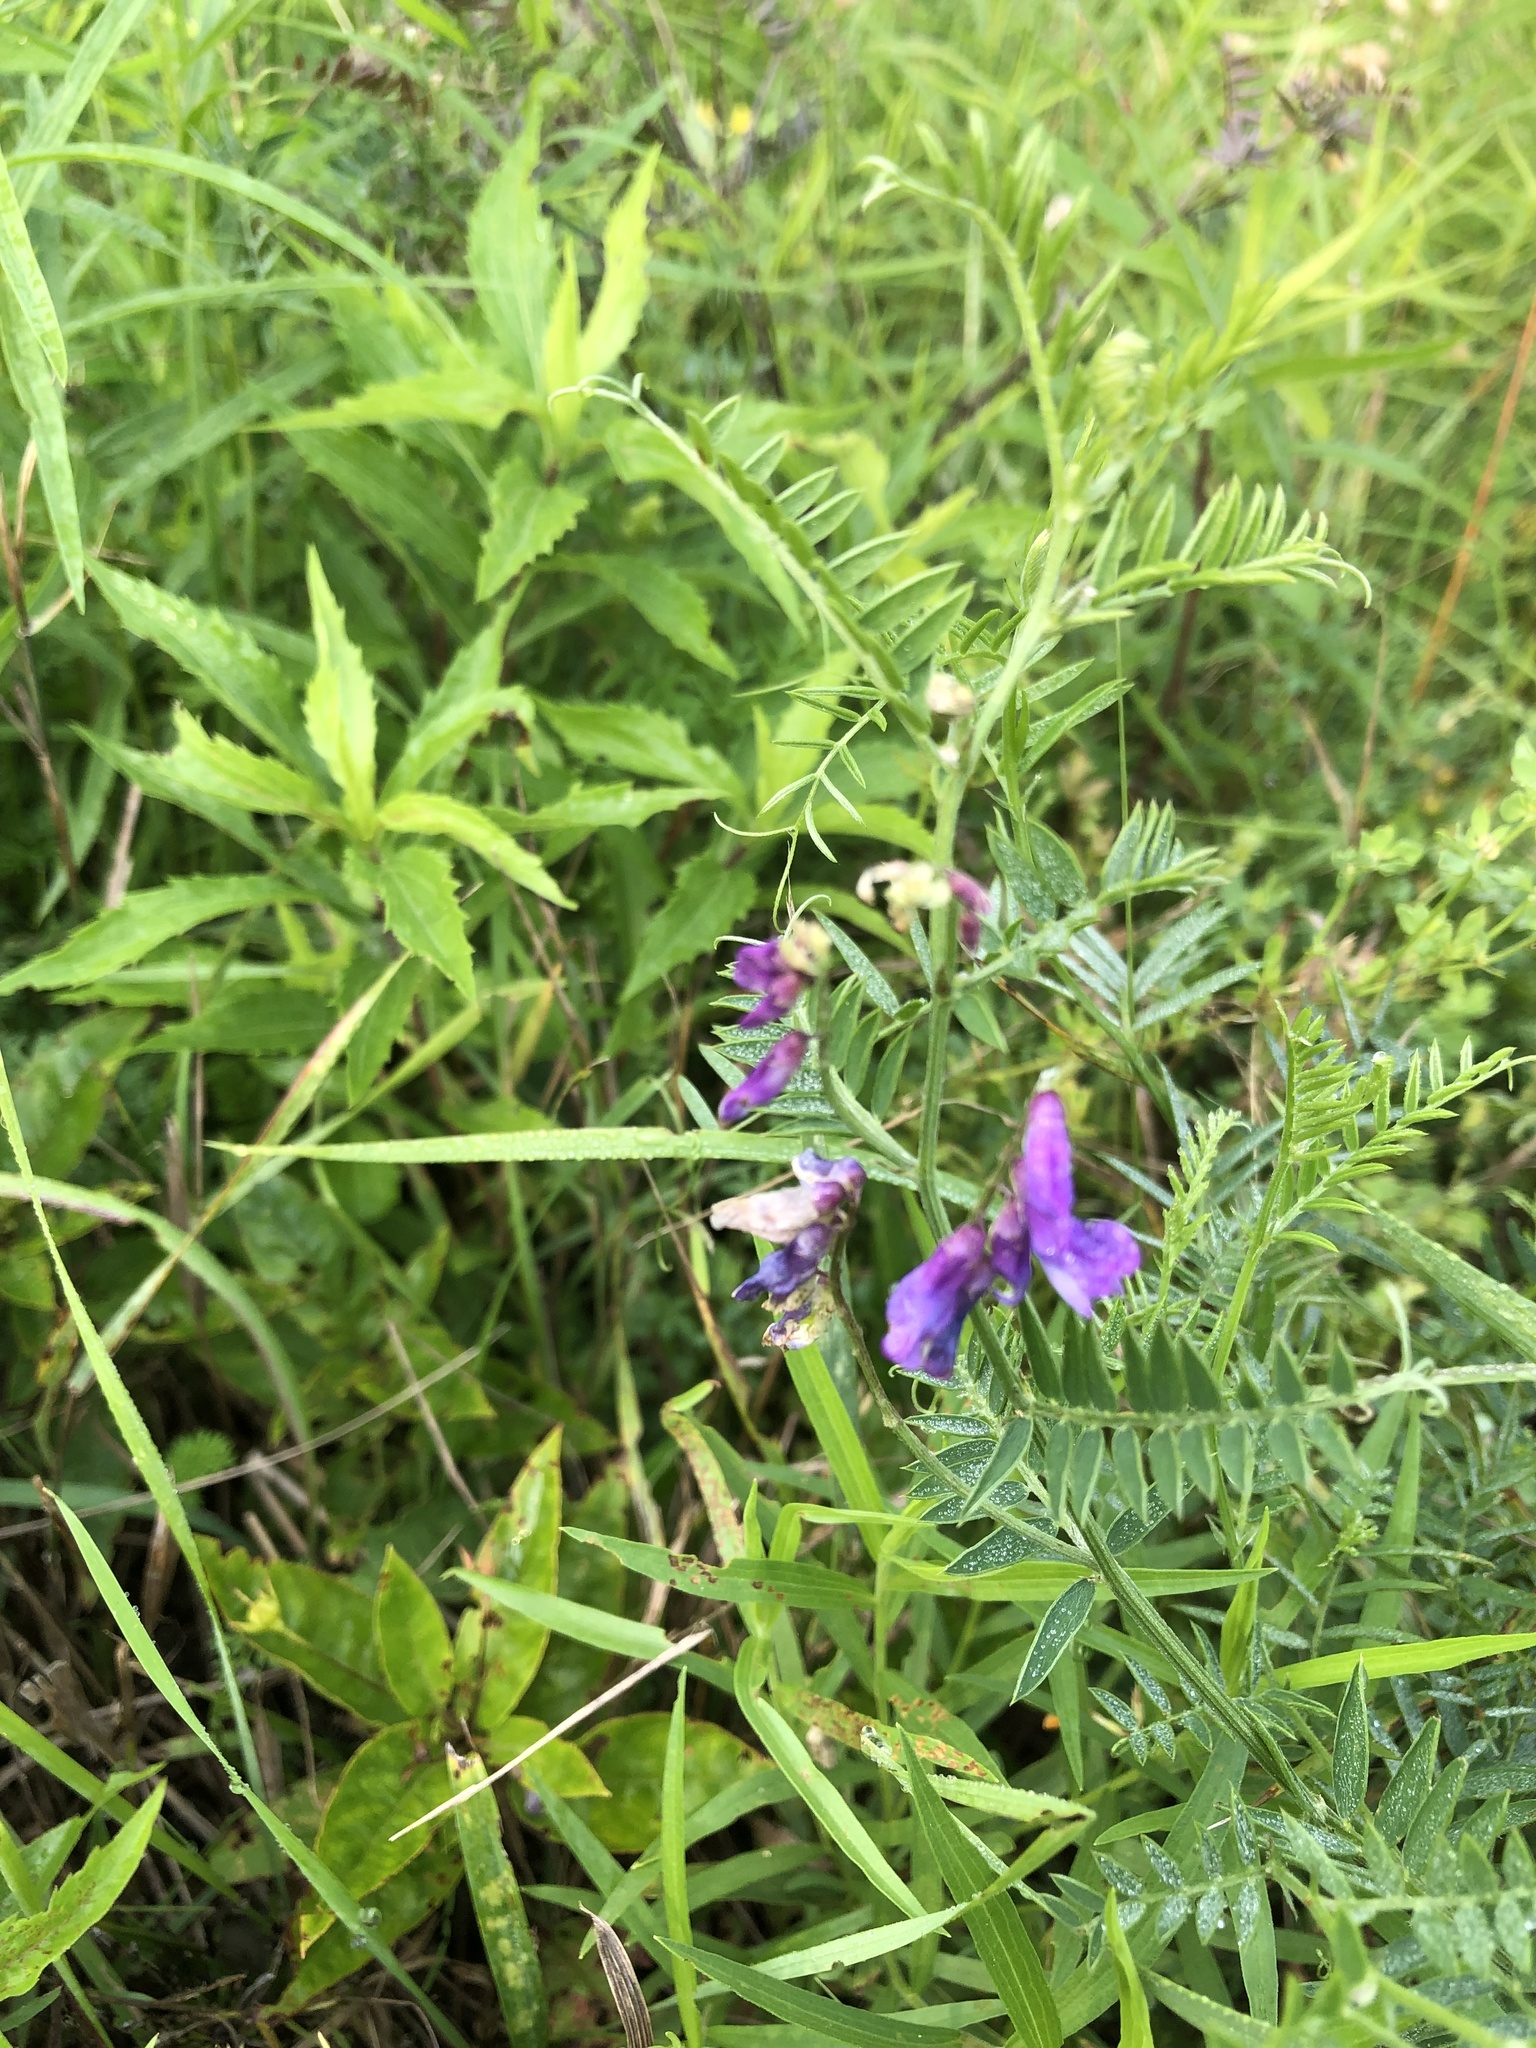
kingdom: Plantae
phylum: Tracheophyta
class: Magnoliopsida
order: Fabales
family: Fabaceae
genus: Vicia
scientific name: Vicia cracca
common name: Bird vetch
